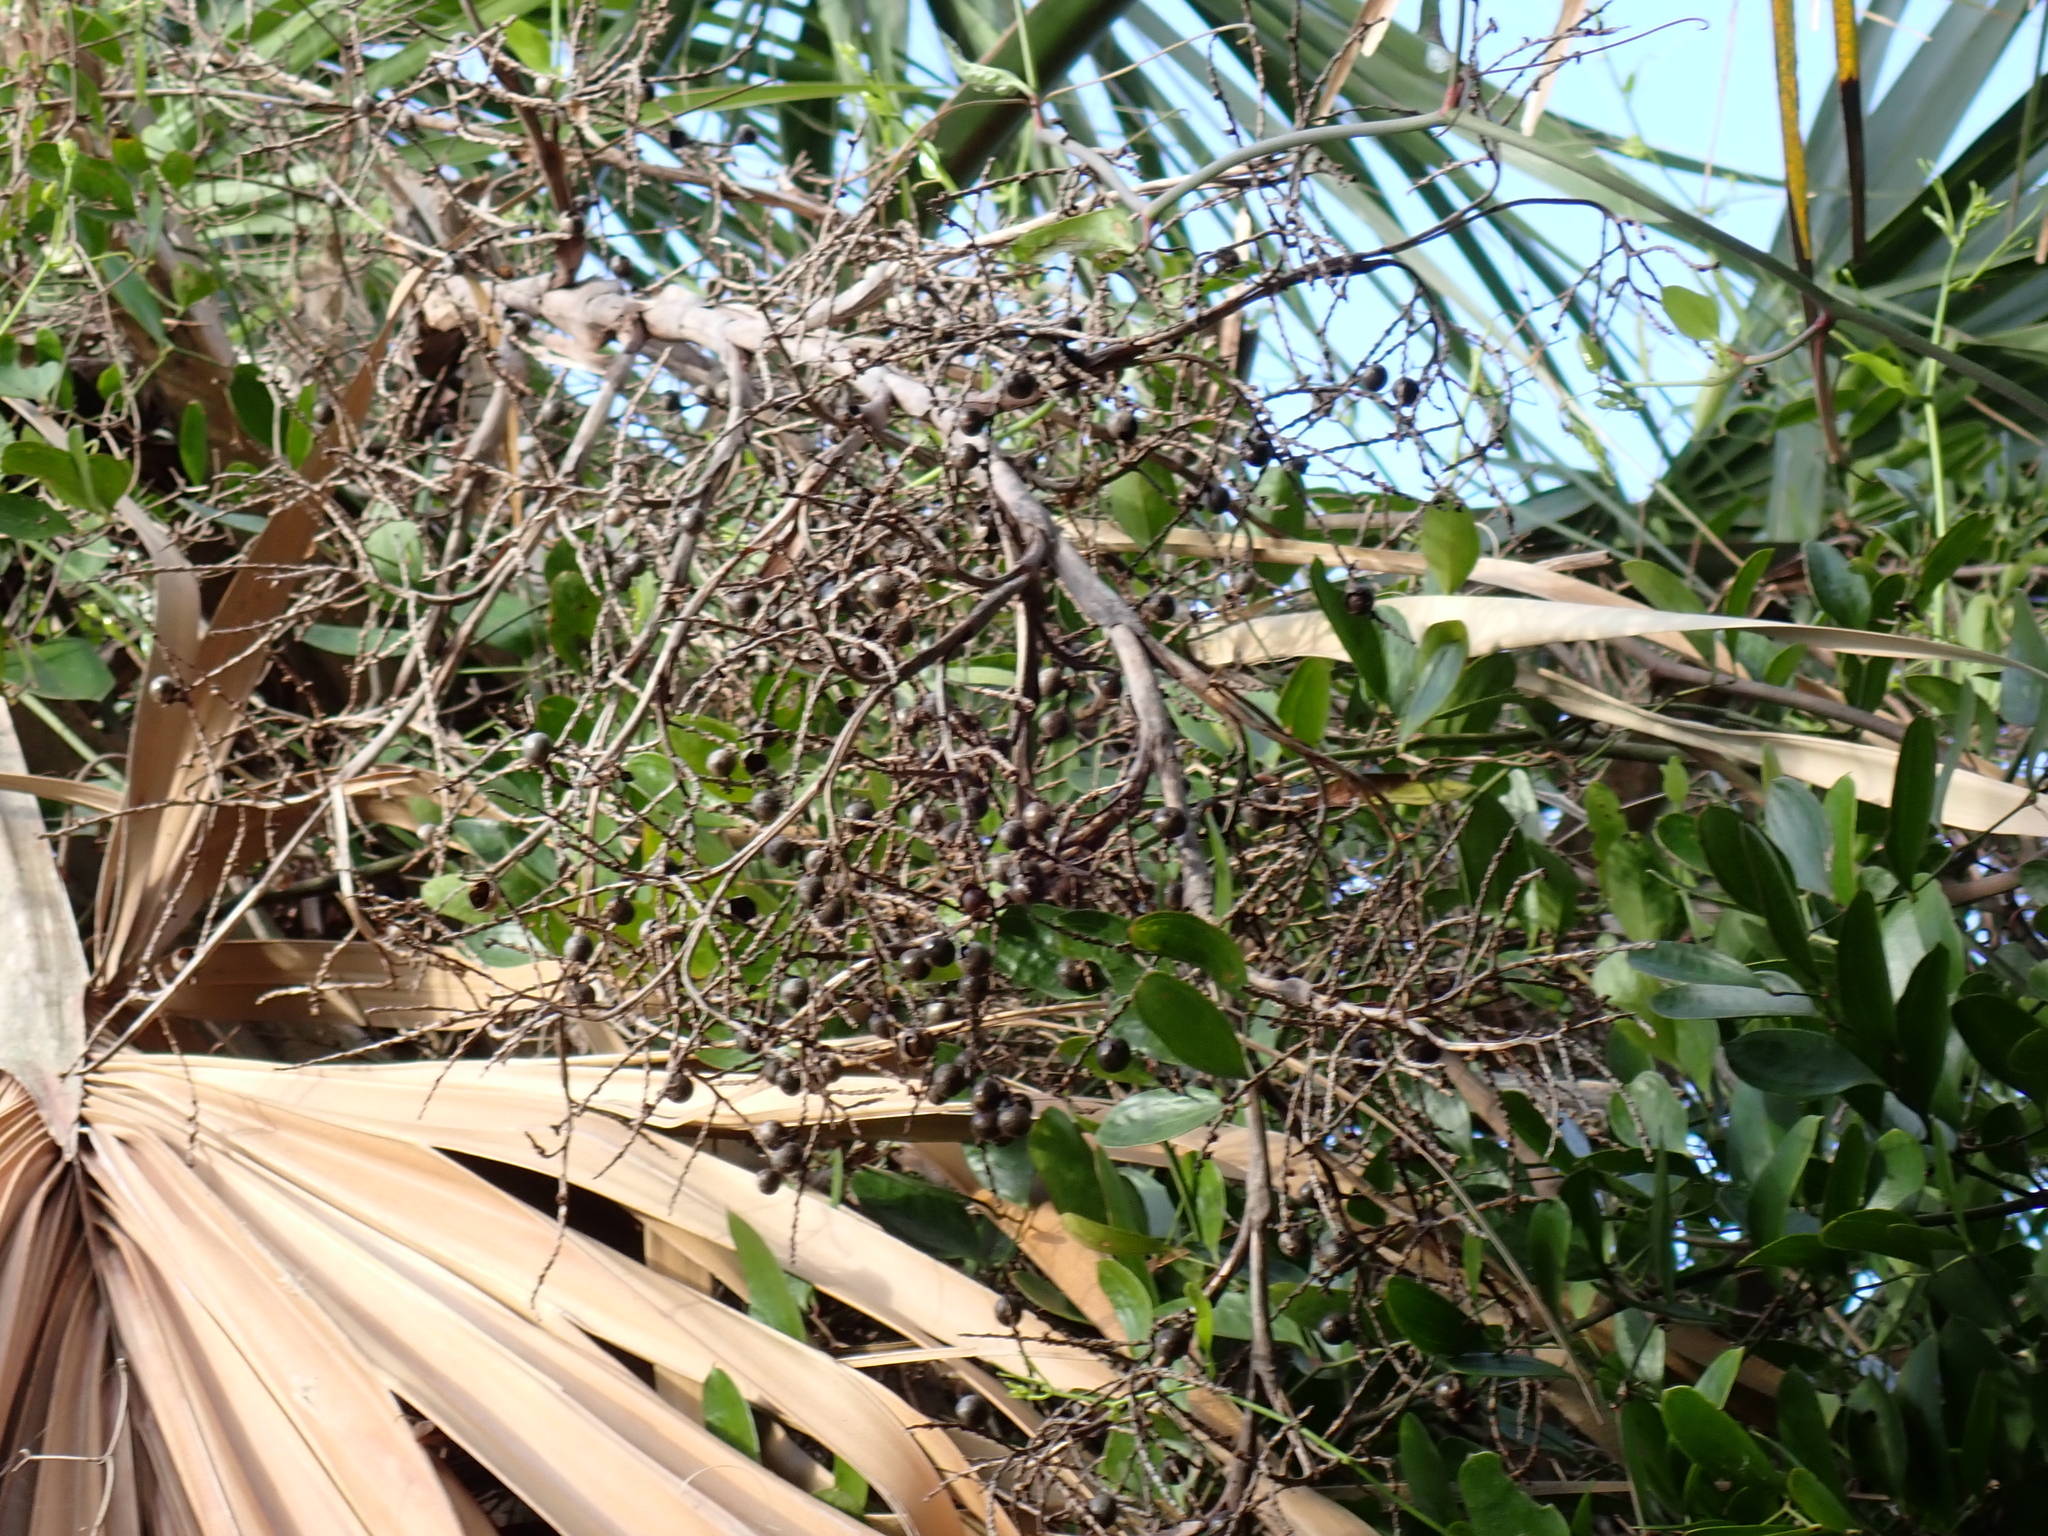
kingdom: Plantae
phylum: Tracheophyta
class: Liliopsida
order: Liliales
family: Smilacaceae
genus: Smilax
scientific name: Smilax auriculata
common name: Wild bamboo
